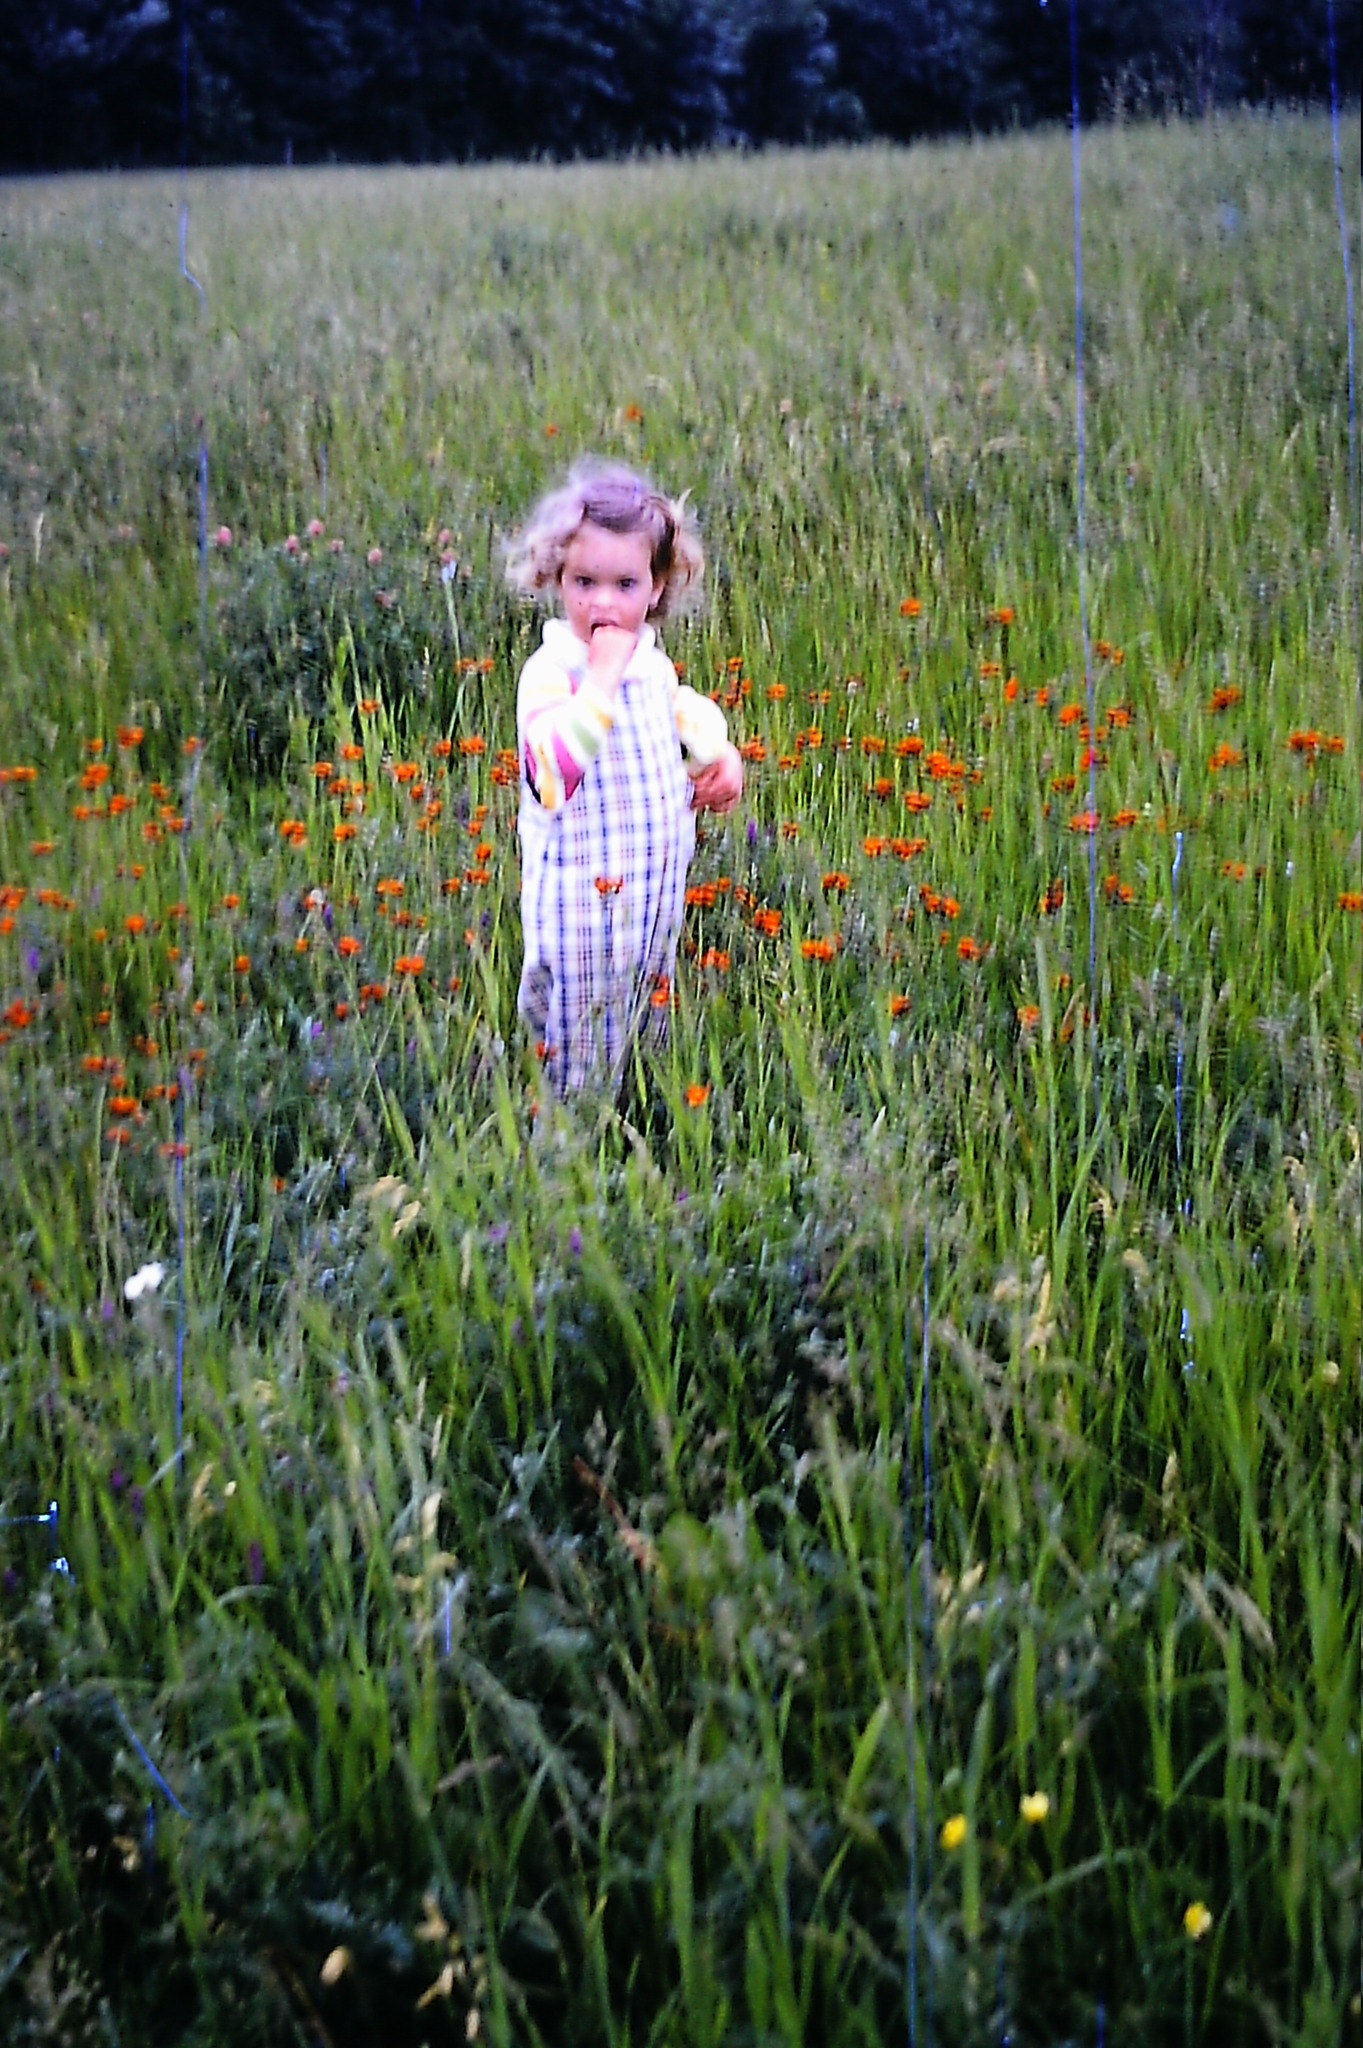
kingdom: Plantae
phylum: Tracheophyta
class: Magnoliopsida
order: Asterales
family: Asteraceae
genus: Pilosella
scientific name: Pilosella aurantiaca
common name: Fox-and-cubs
